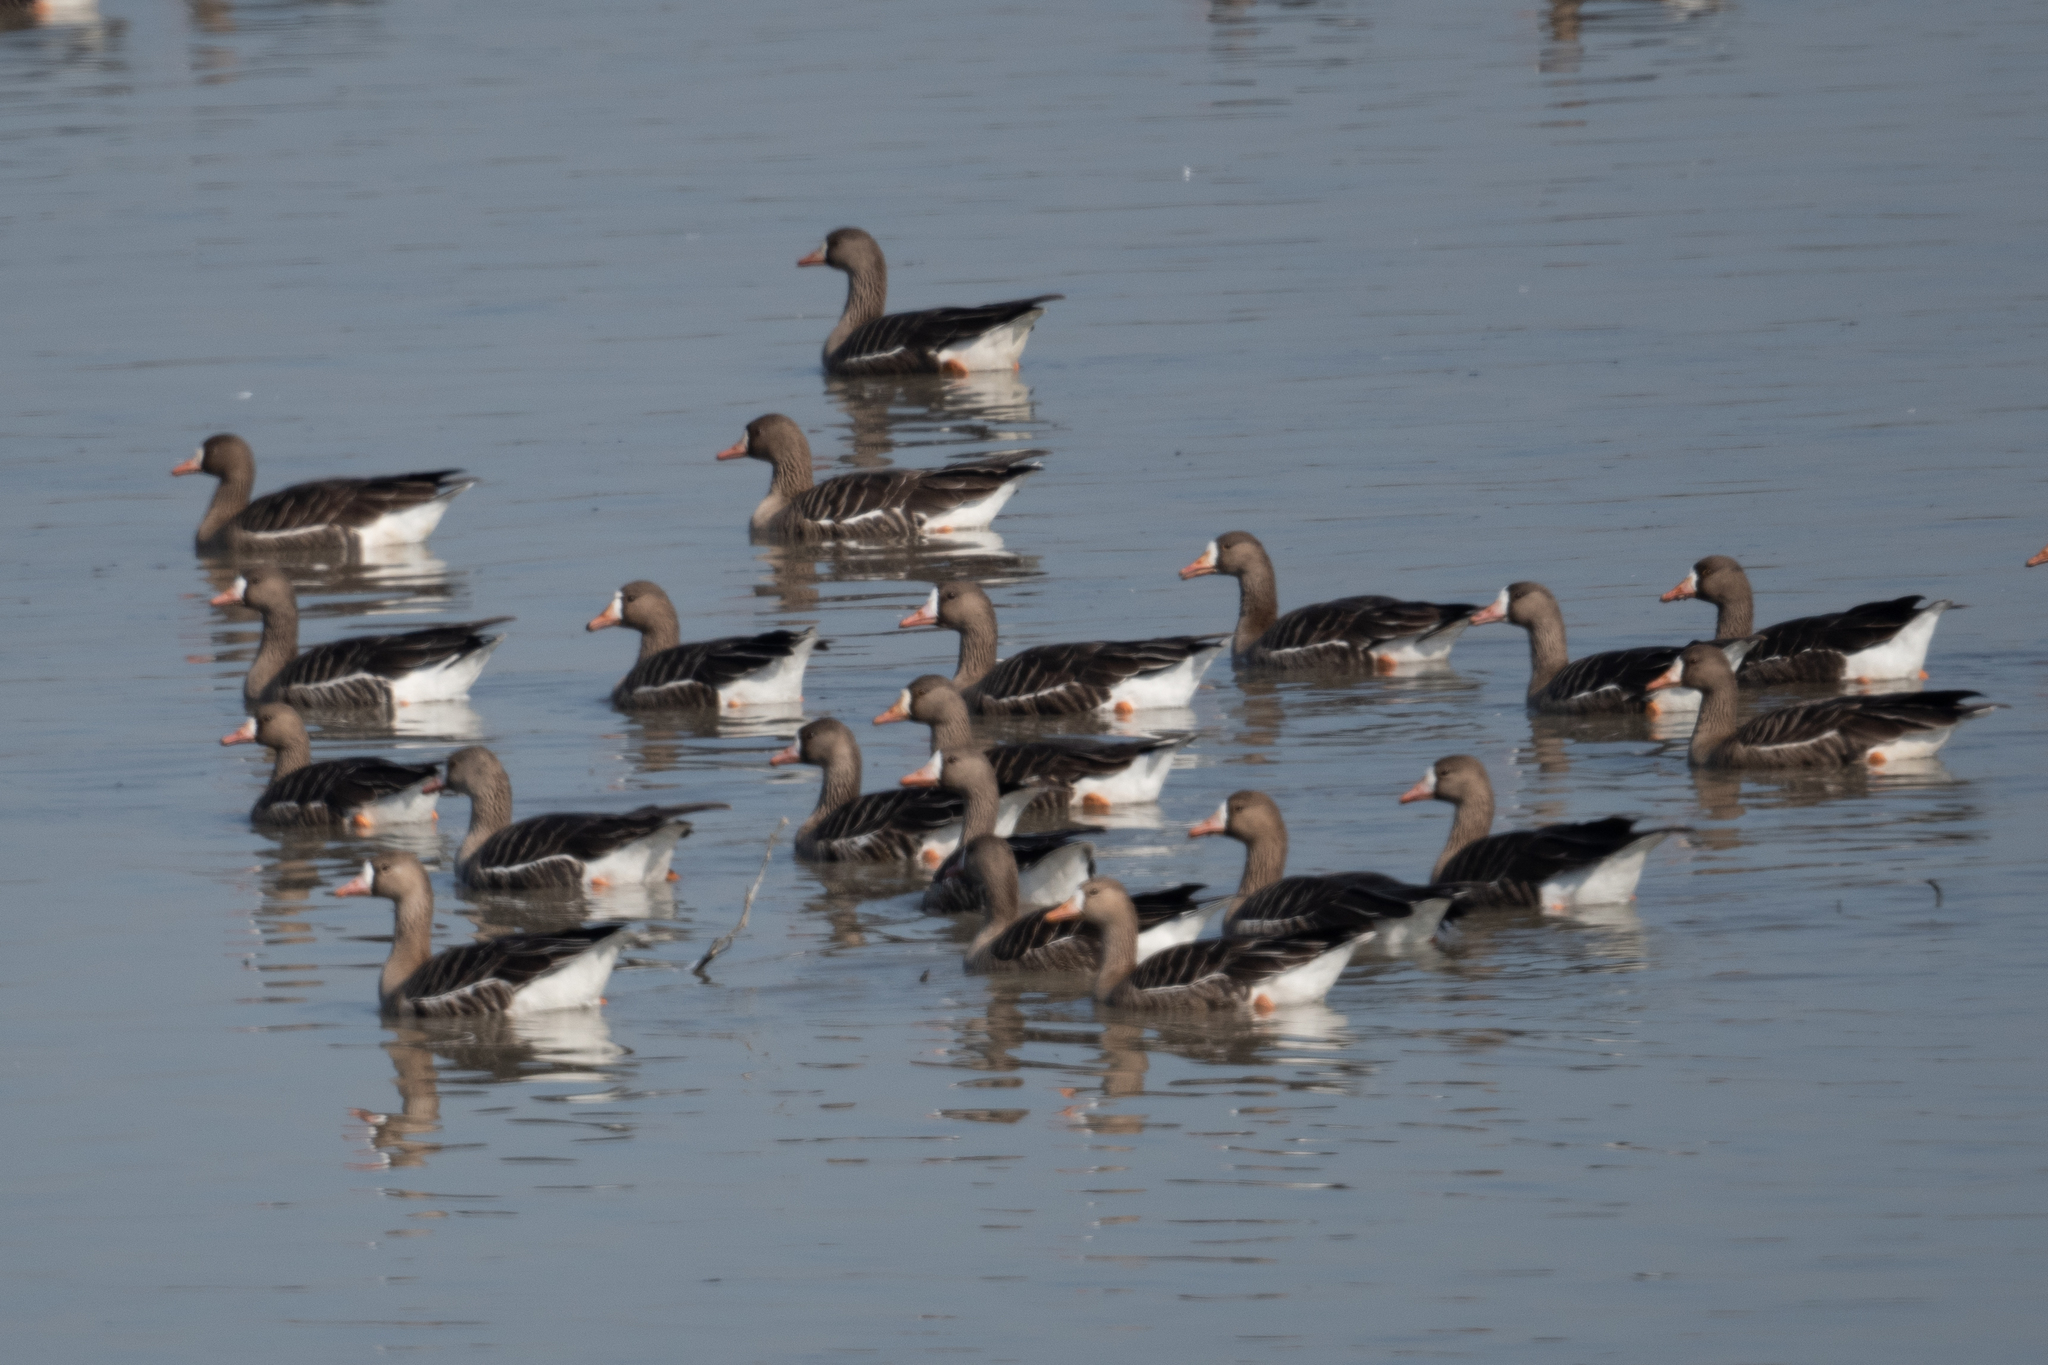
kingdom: Animalia
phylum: Chordata
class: Aves
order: Anseriformes
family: Anatidae
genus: Anser
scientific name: Anser albifrons
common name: Greater white-fronted goose
